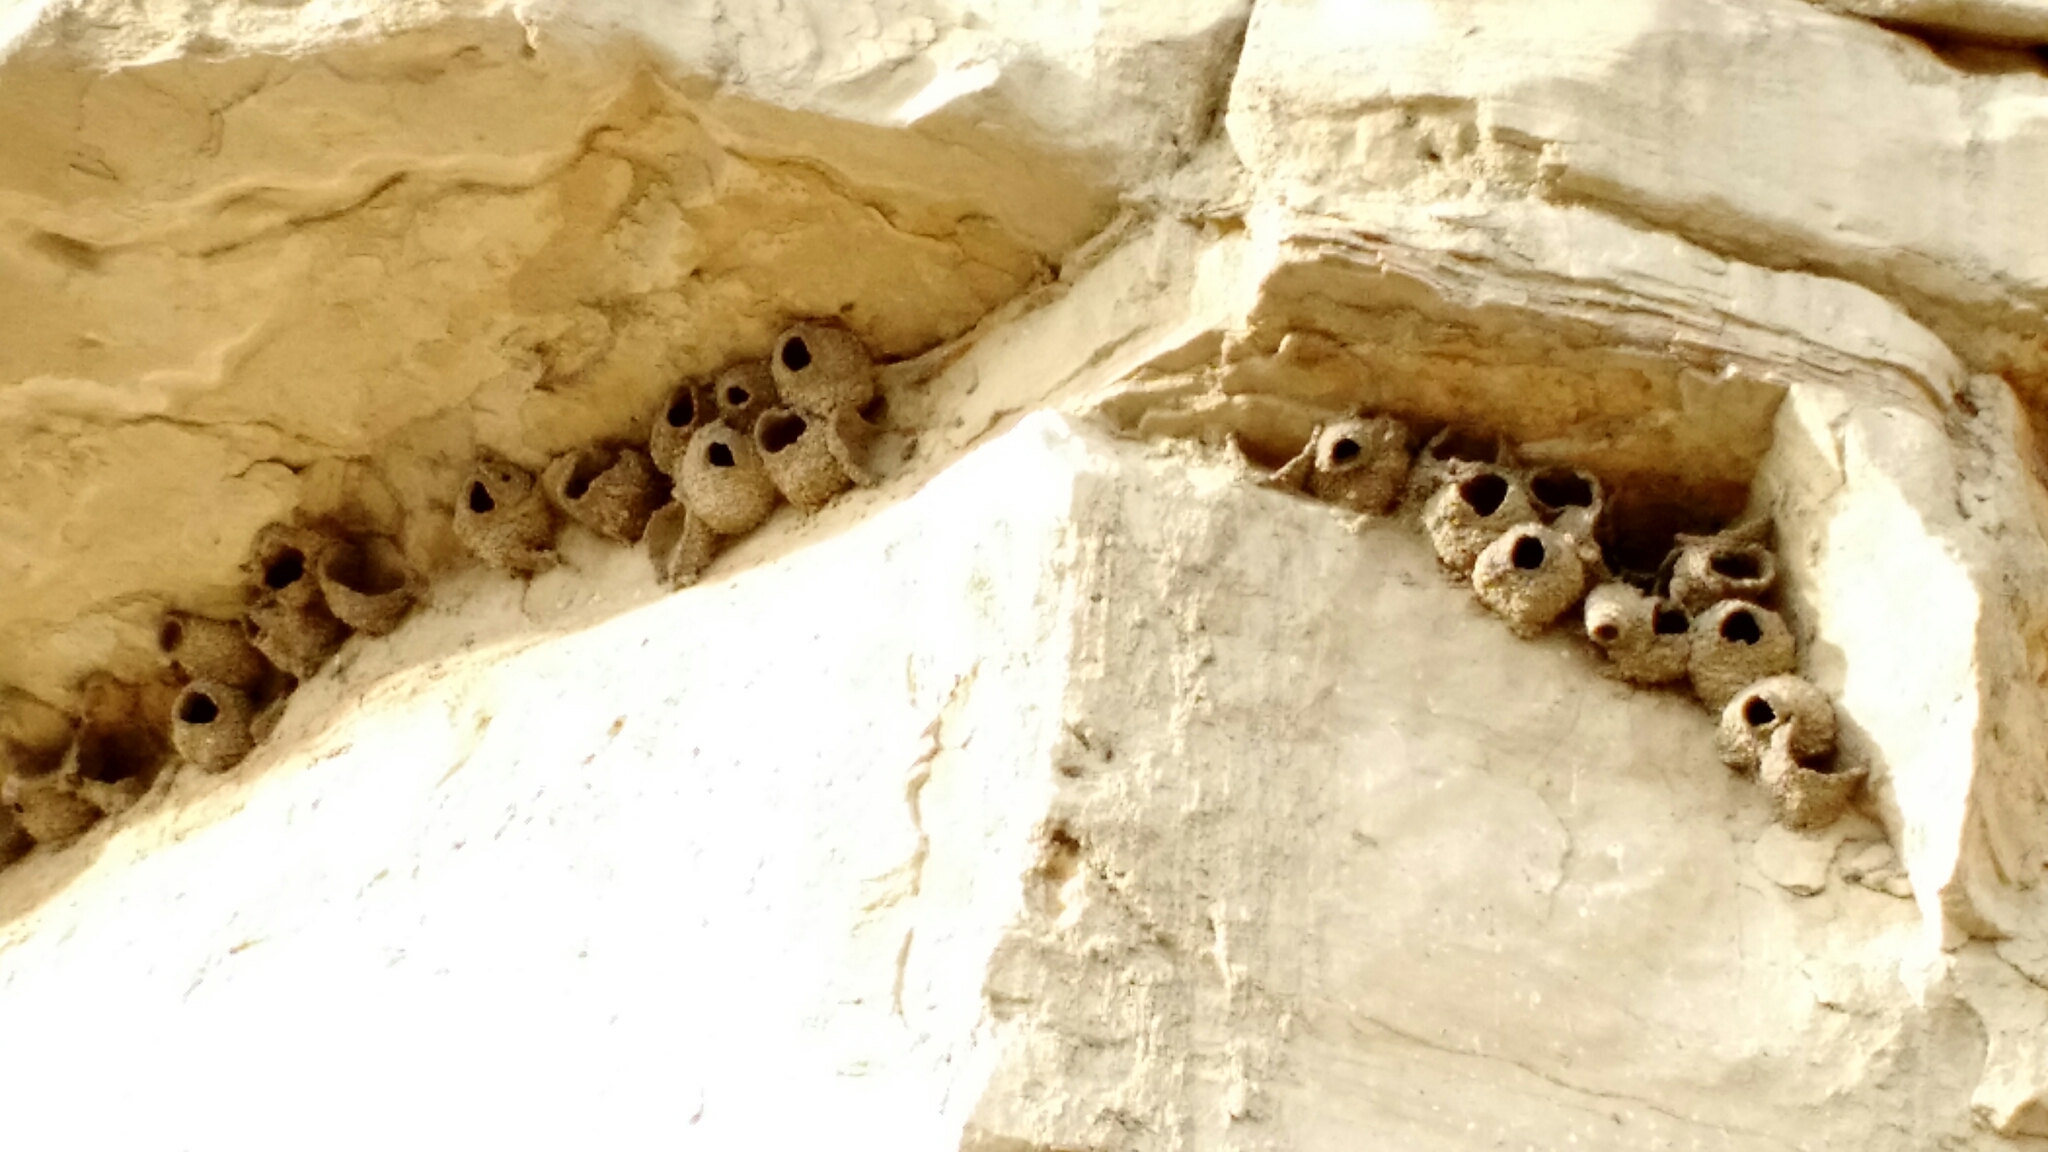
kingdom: Animalia
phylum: Chordata
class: Aves
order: Passeriformes
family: Hirundinidae
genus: Petrochelidon
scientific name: Petrochelidon pyrrhonota
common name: American cliff swallow
